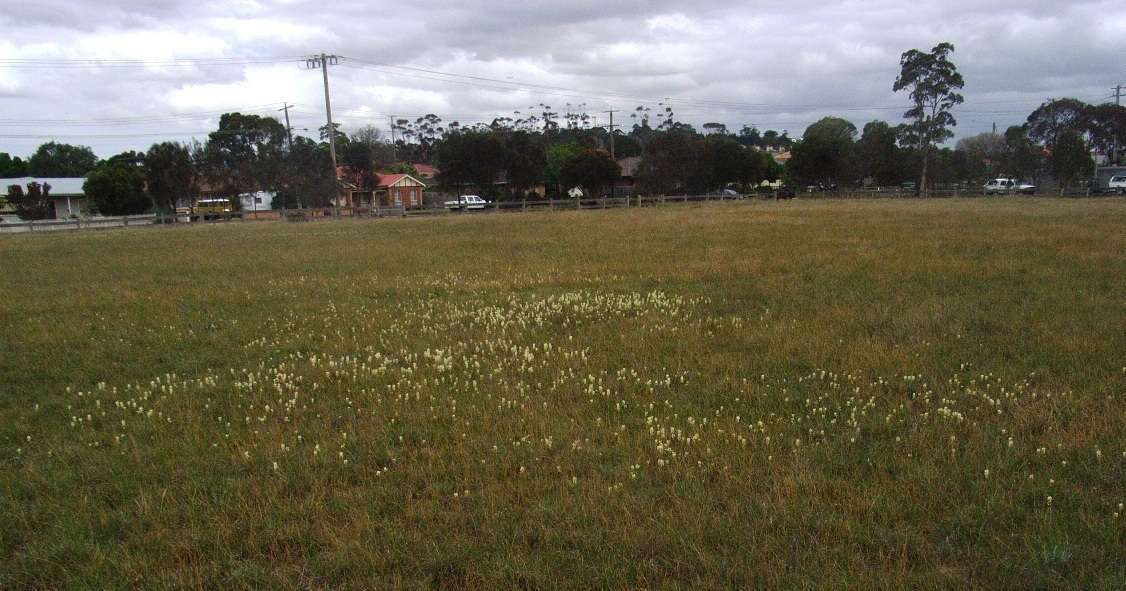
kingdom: Plantae
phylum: Tracheophyta
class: Magnoliopsida
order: Celastrales
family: Celastraceae
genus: Stackhousia
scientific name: Stackhousia subterranea
